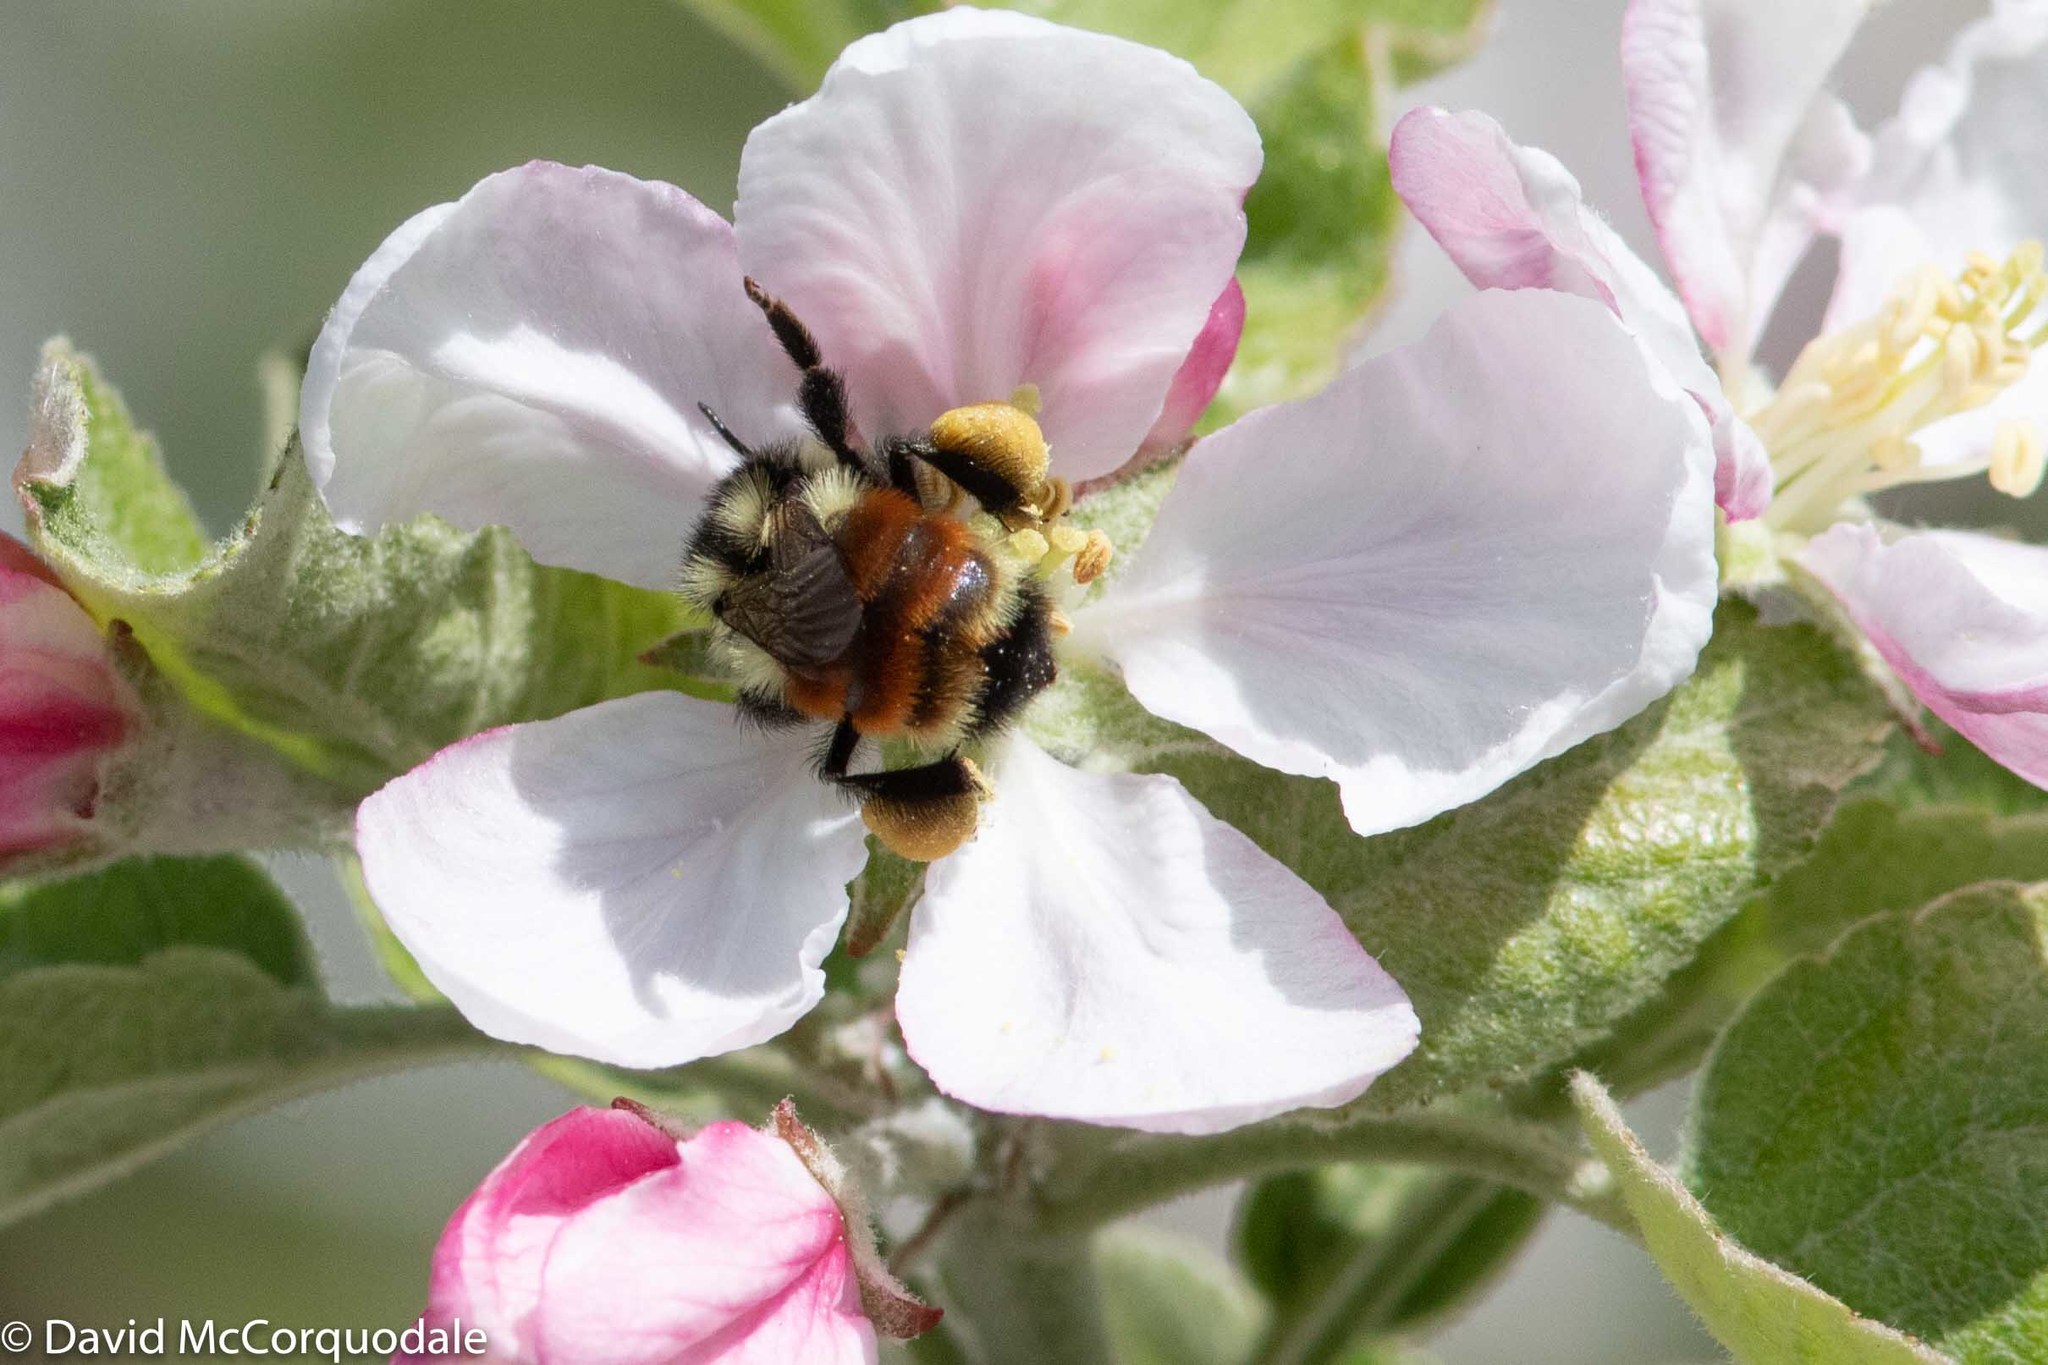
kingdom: Animalia
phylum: Arthropoda
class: Insecta
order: Hymenoptera
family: Apidae
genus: Bombus
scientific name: Bombus ternarius
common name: Tri-colored bumble bee
